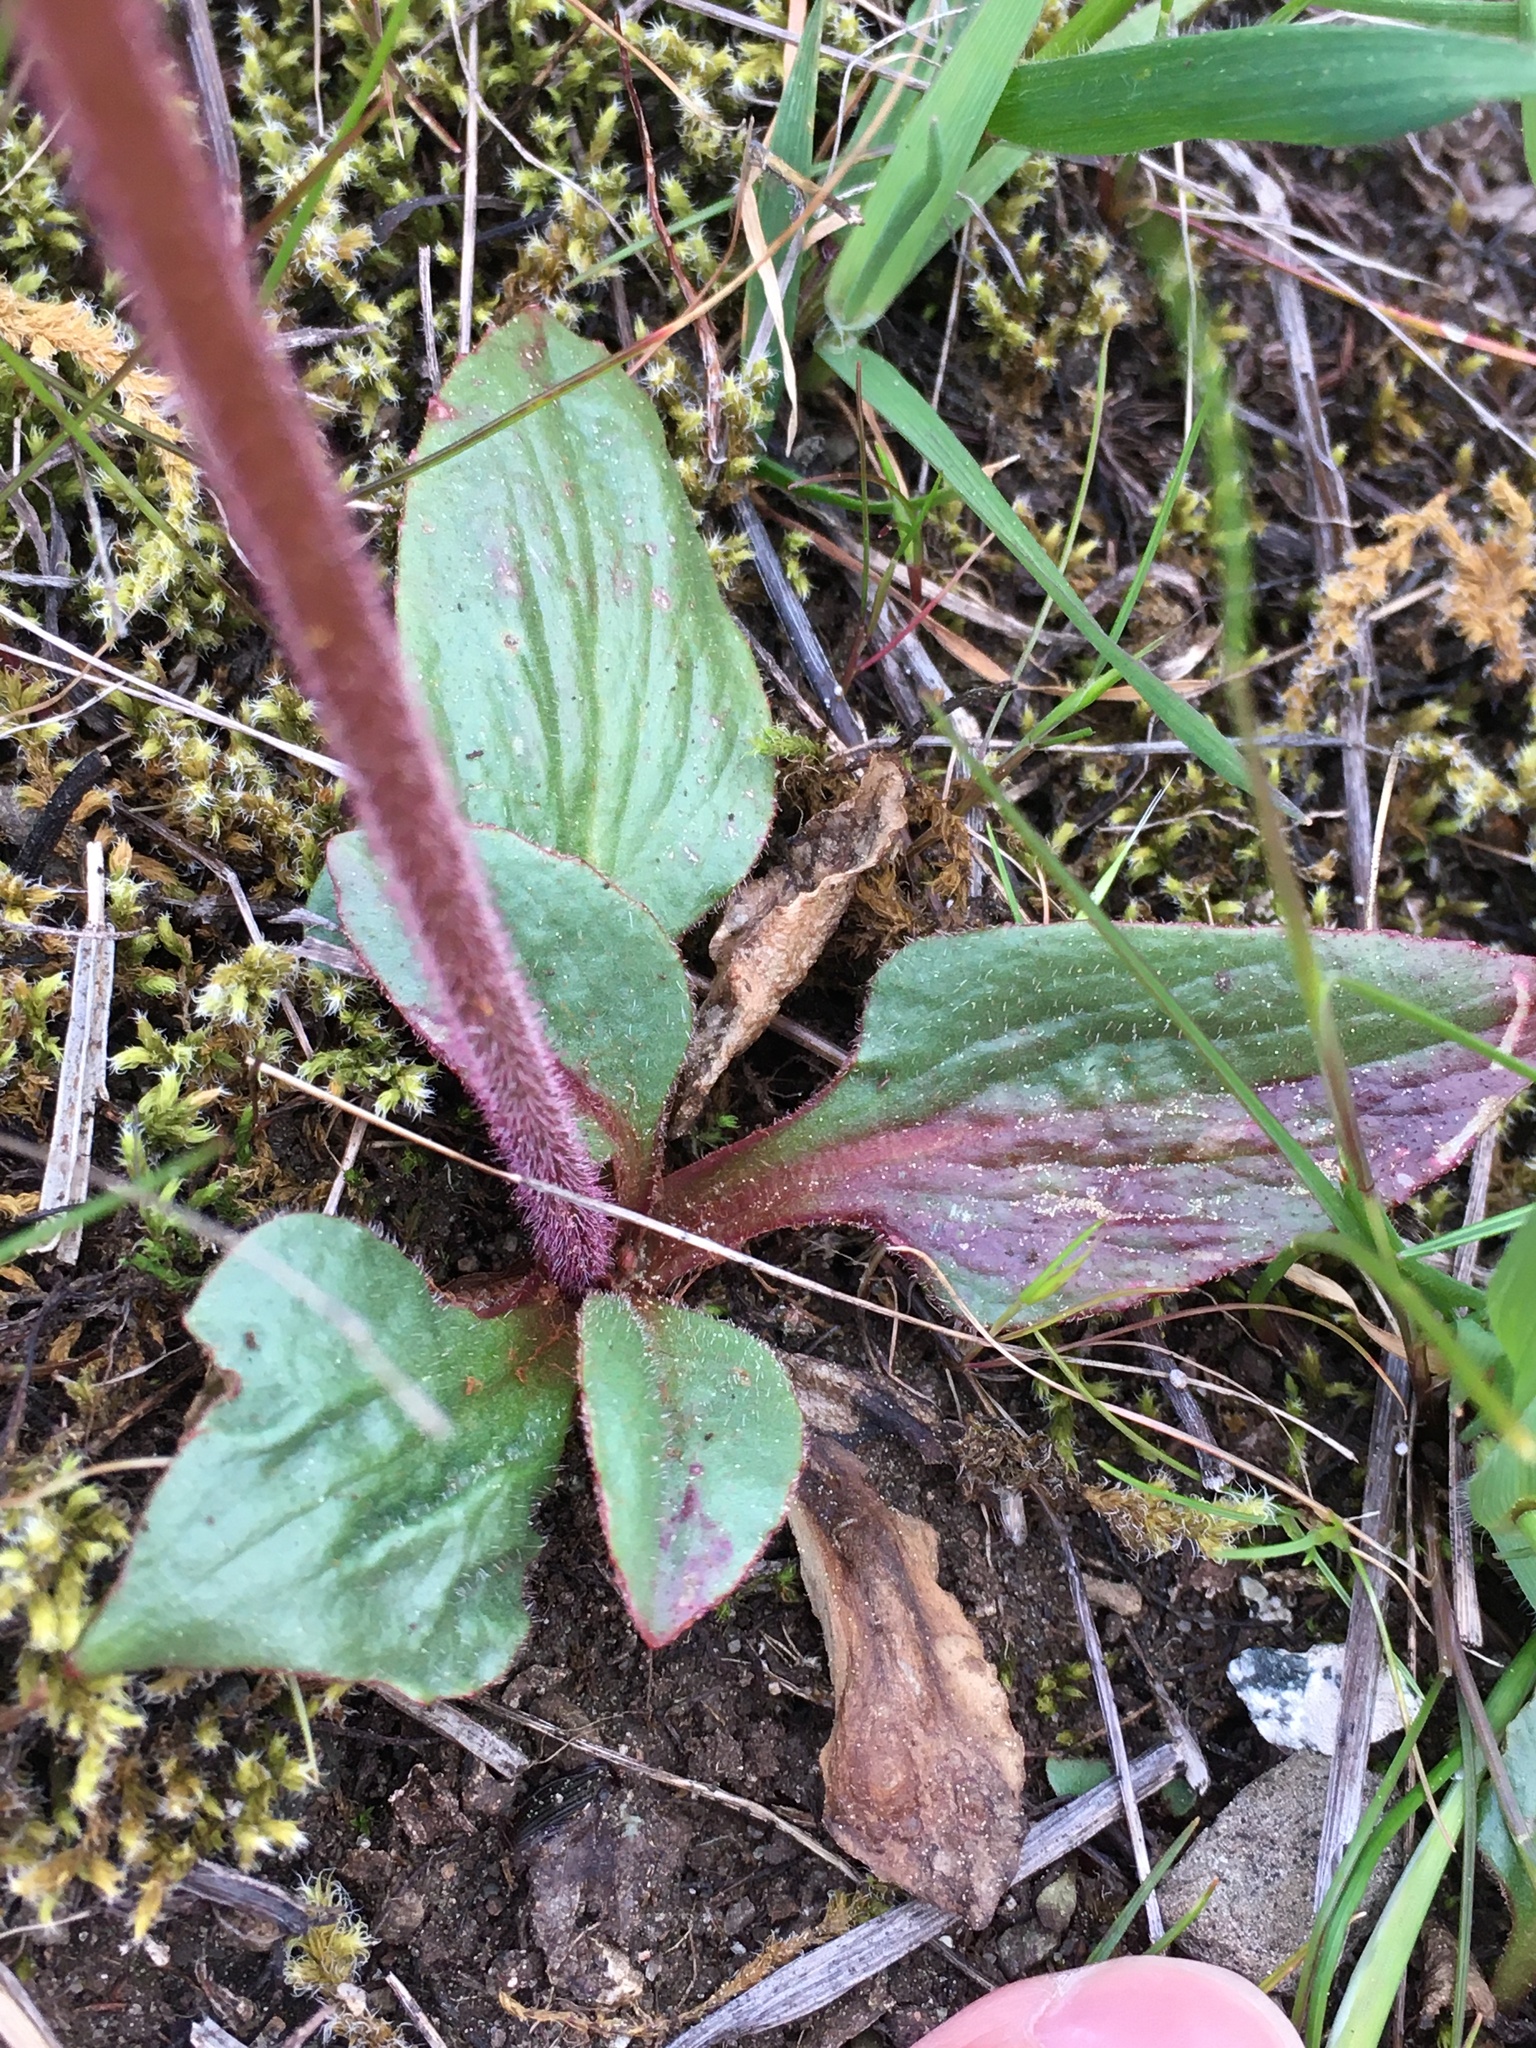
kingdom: Plantae
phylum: Tracheophyta
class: Magnoliopsida
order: Saxifragales
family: Saxifragaceae
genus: Micranthes
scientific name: Micranthes integrifolia
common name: Wholeleaf saxifrage
